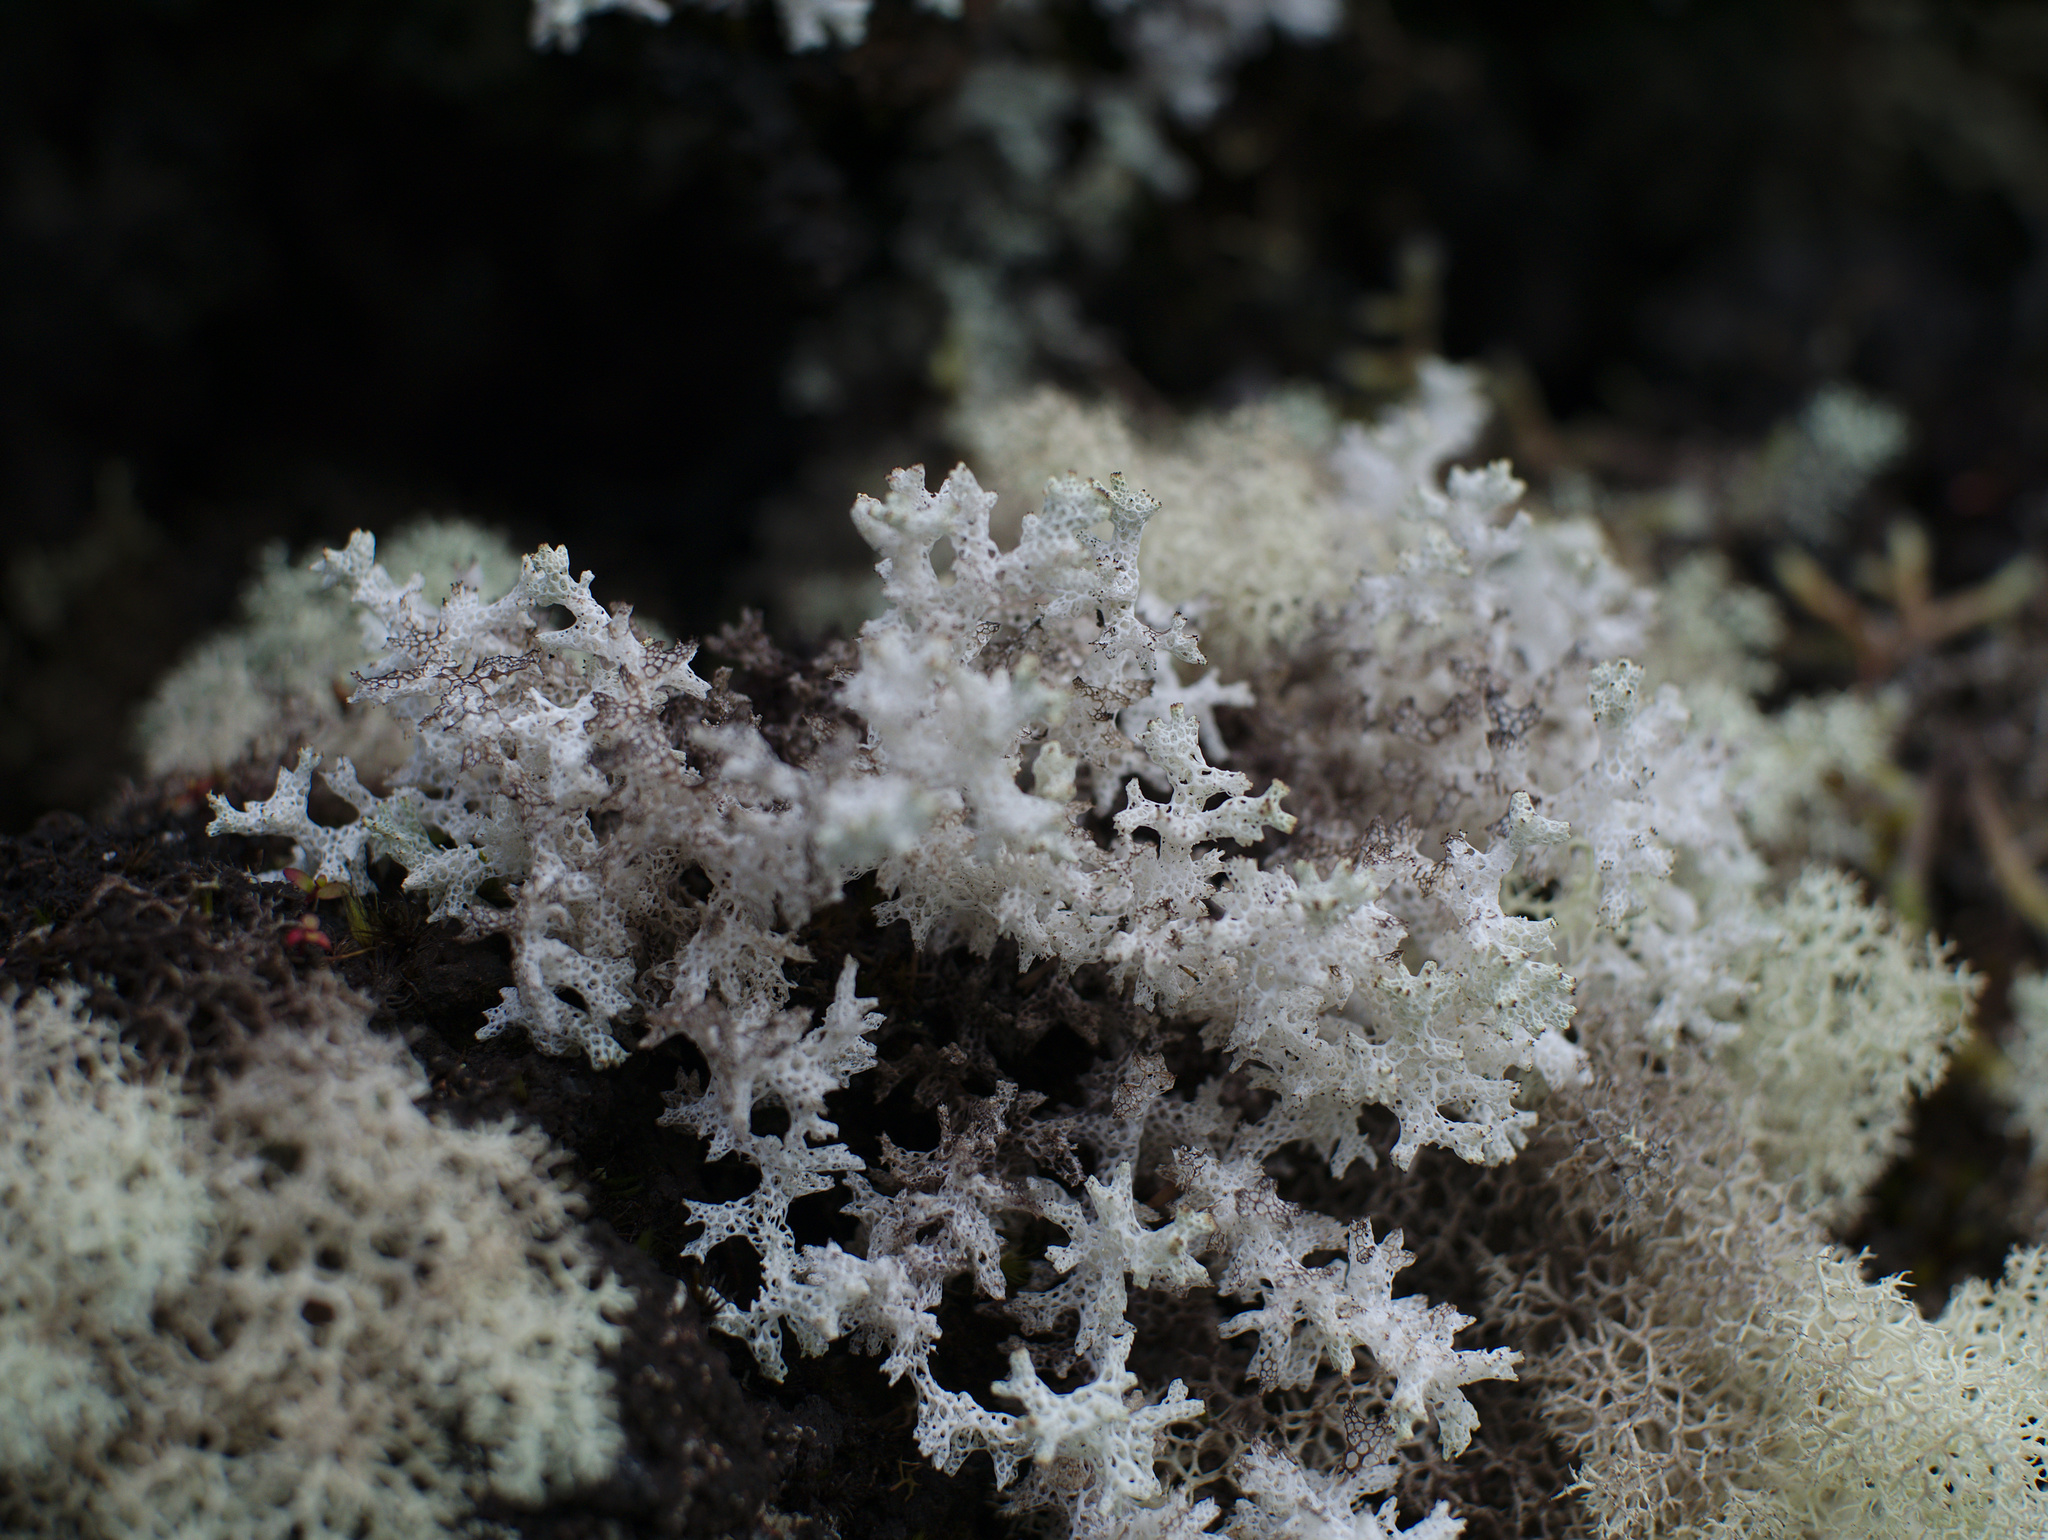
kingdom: Fungi
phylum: Ascomycota
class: Lecanoromycetes
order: Lecanorales
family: Cladoniaceae
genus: Pulchrocladia
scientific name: Pulchrocladia retipora
